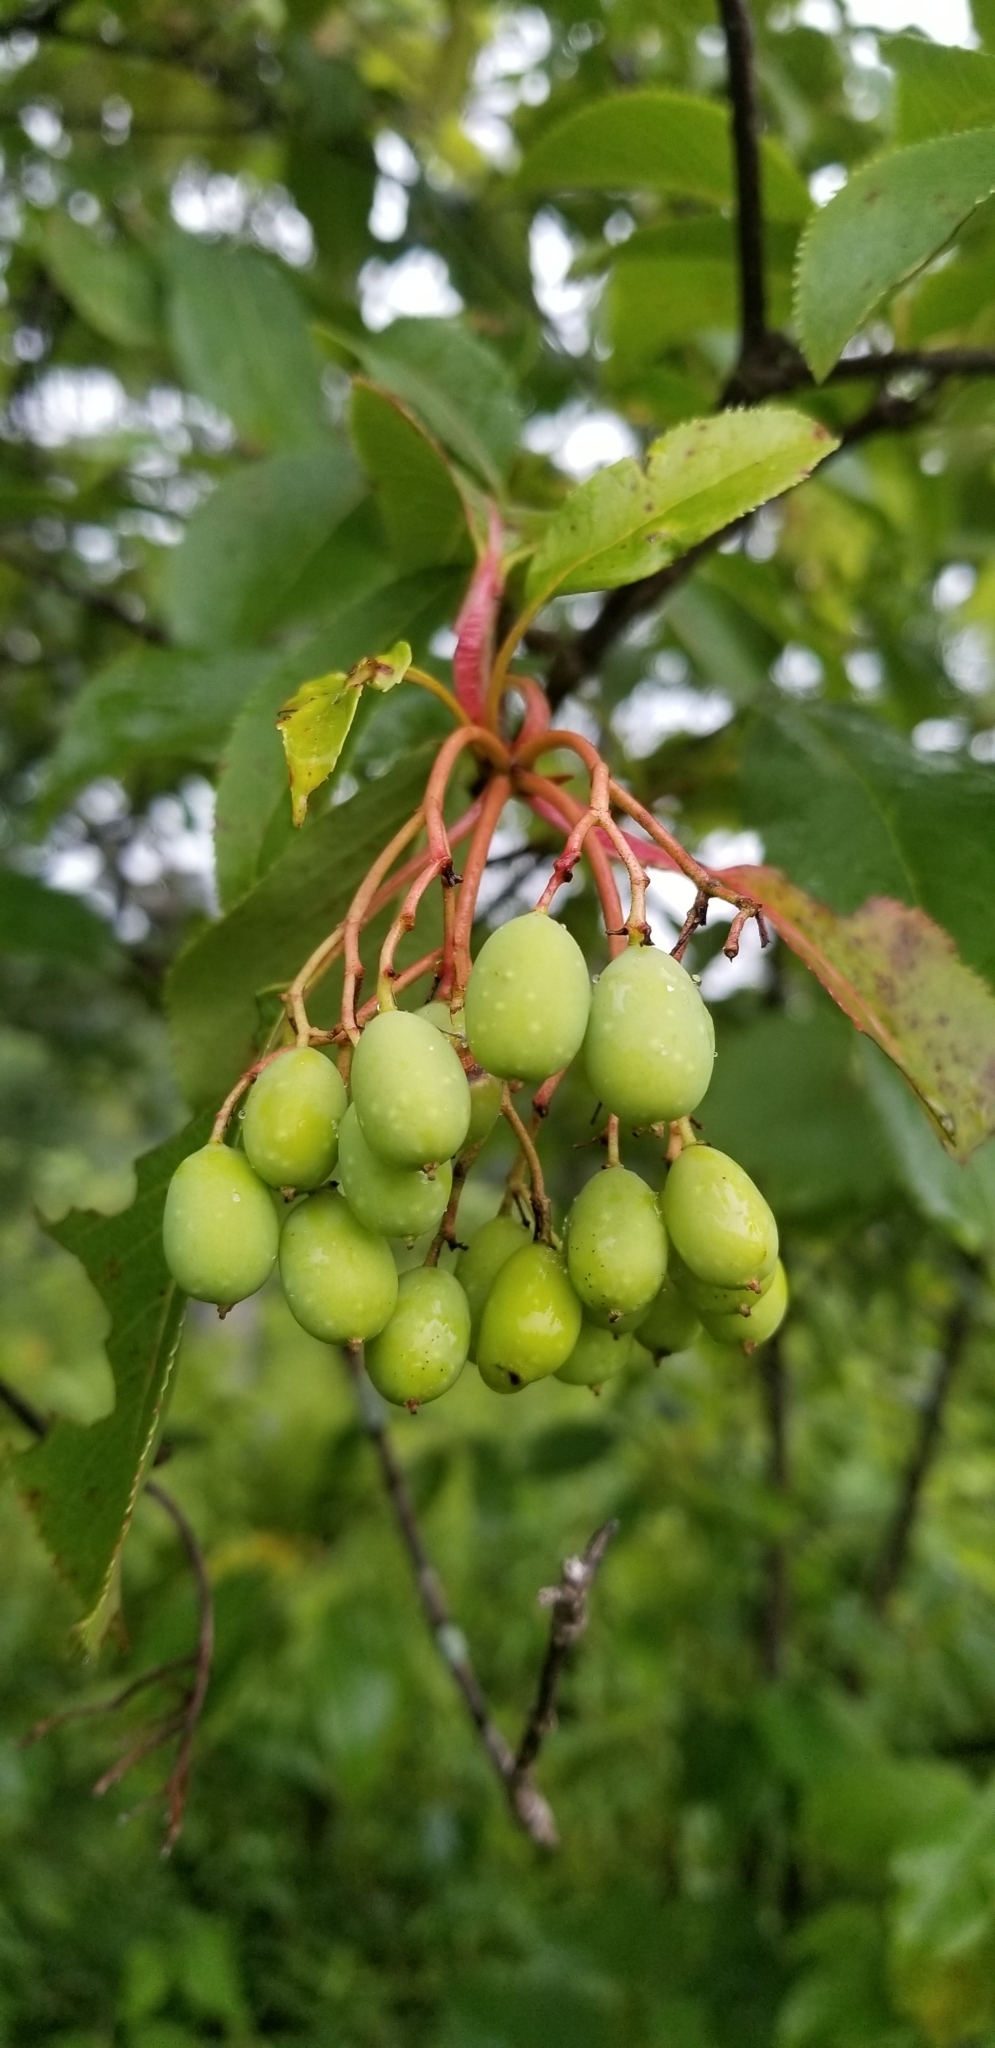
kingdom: Plantae
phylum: Tracheophyta
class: Magnoliopsida
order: Dipsacales
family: Viburnaceae
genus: Viburnum
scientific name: Viburnum lentago
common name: Black haw
